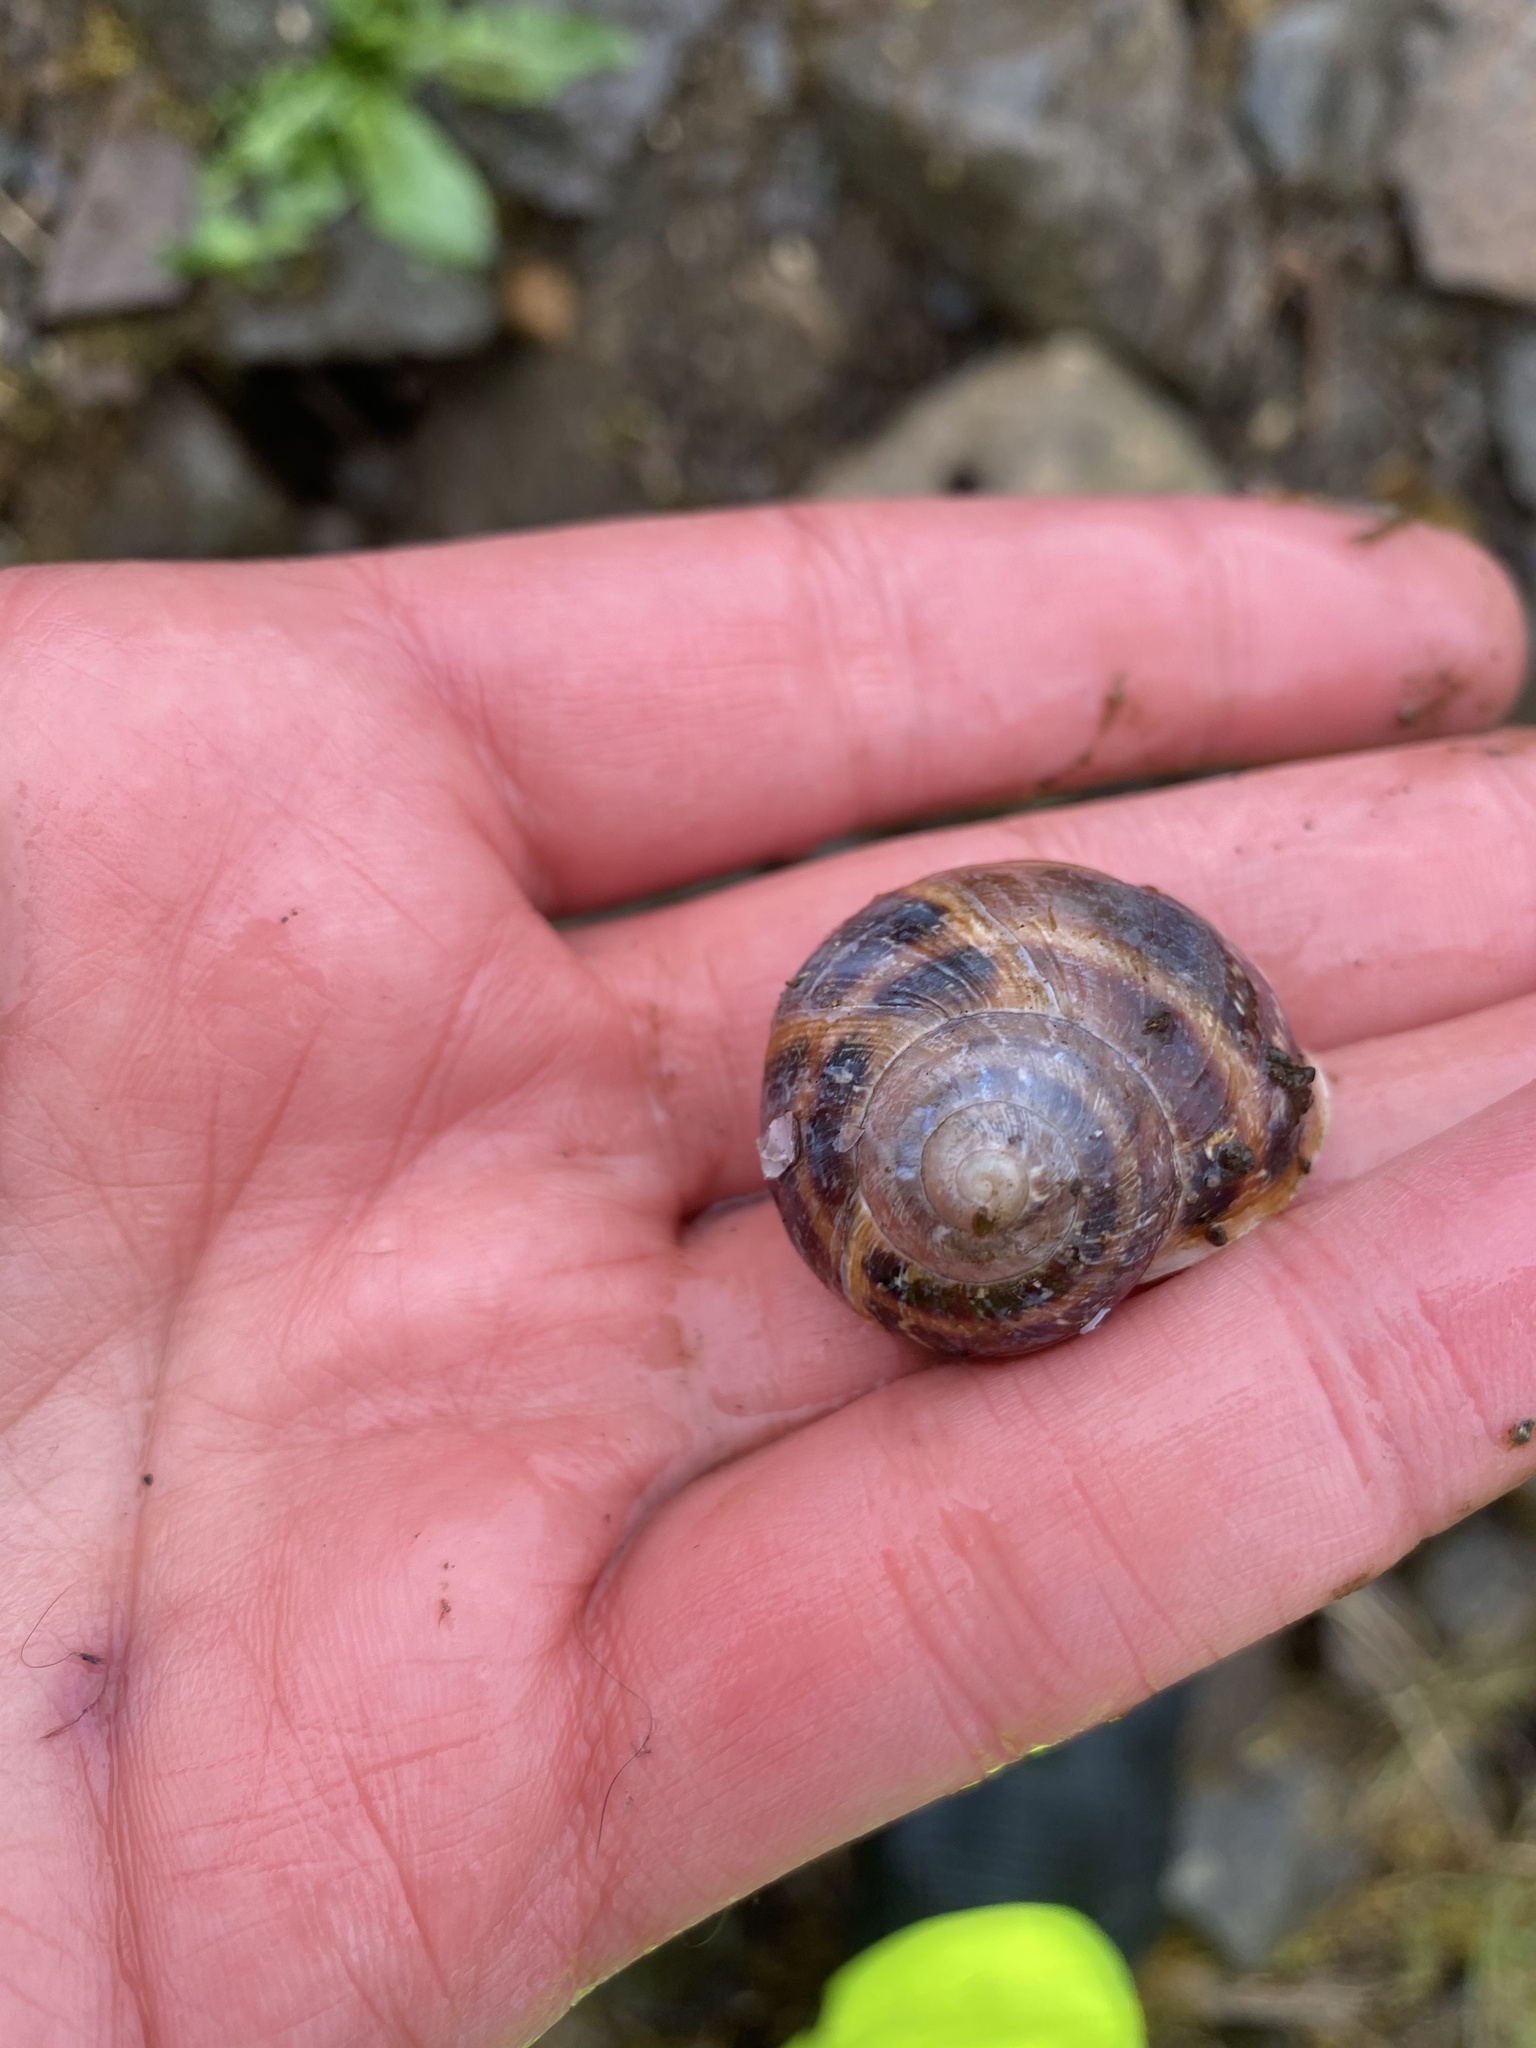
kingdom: Animalia
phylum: Mollusca
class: Gastropoda
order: Stylommatophora
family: Helicidae
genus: Cornu
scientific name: Cornu aspersum
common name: Brown garden snail
